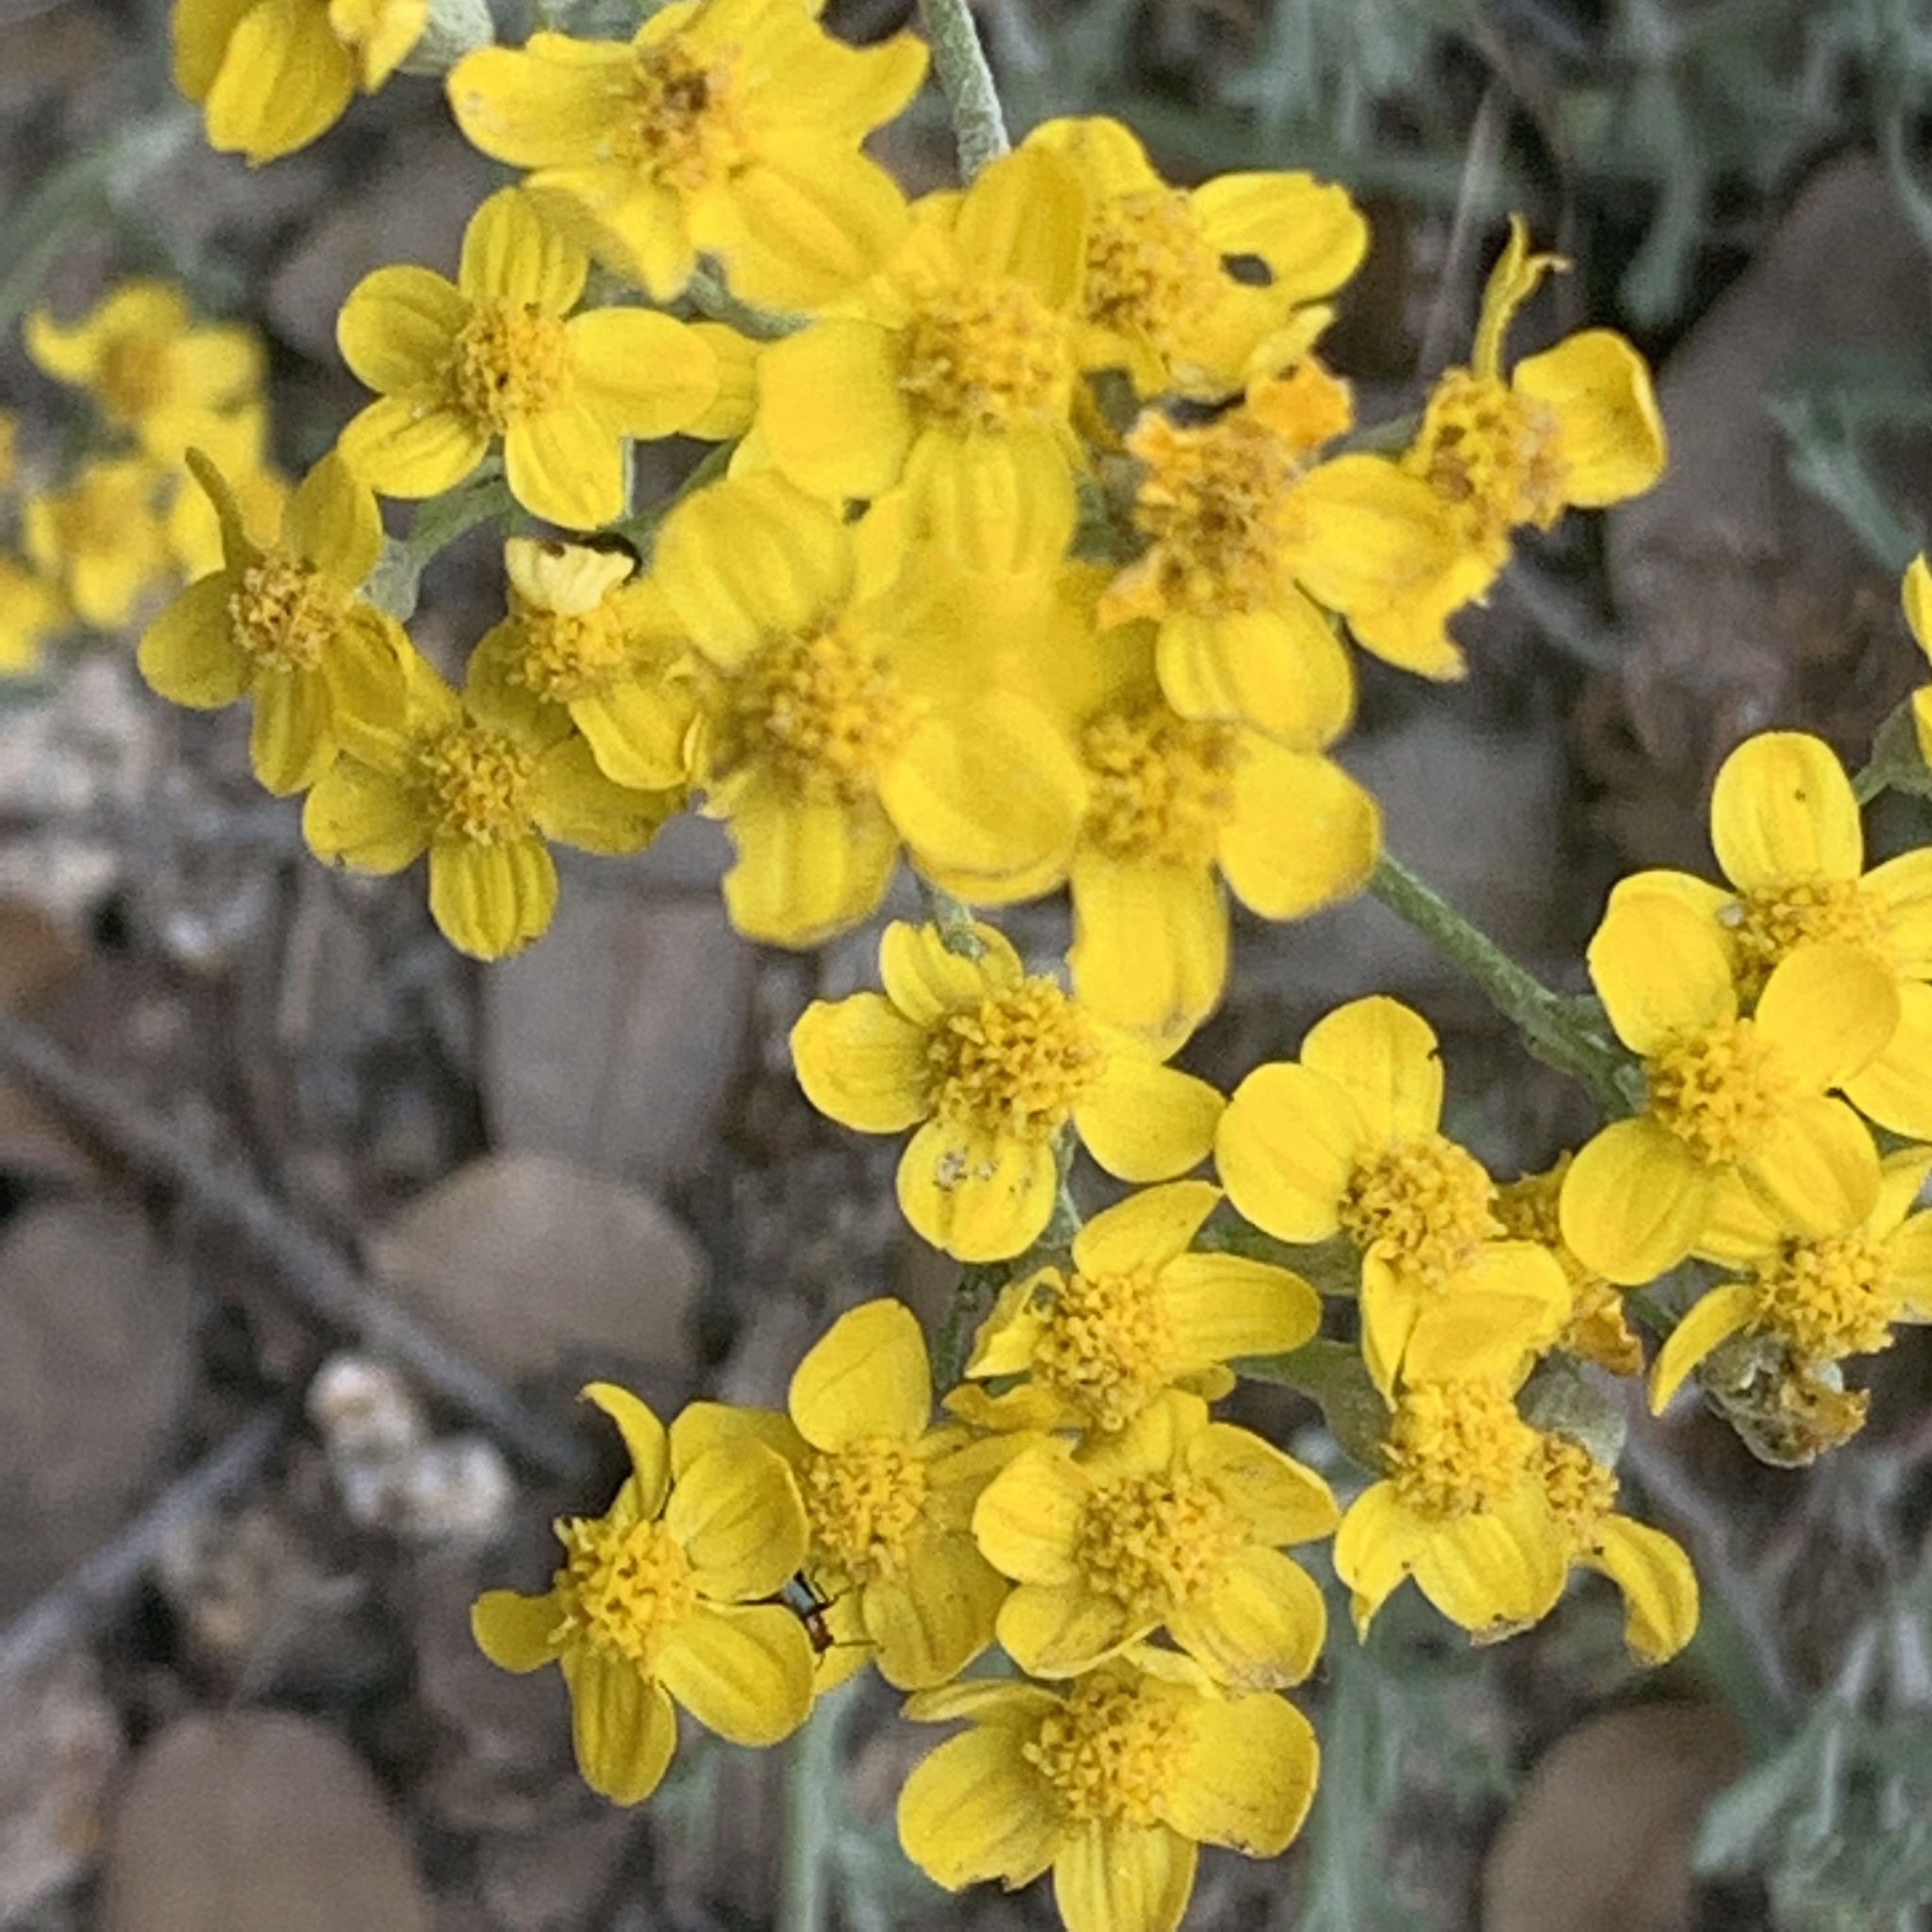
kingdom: Plantae
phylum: Tracheophyta
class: Magnoliopsida
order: Asterales
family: Asteraceae
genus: Eriophyllum
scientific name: Eriophyllum confertiflorum
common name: Golden-yarrow
